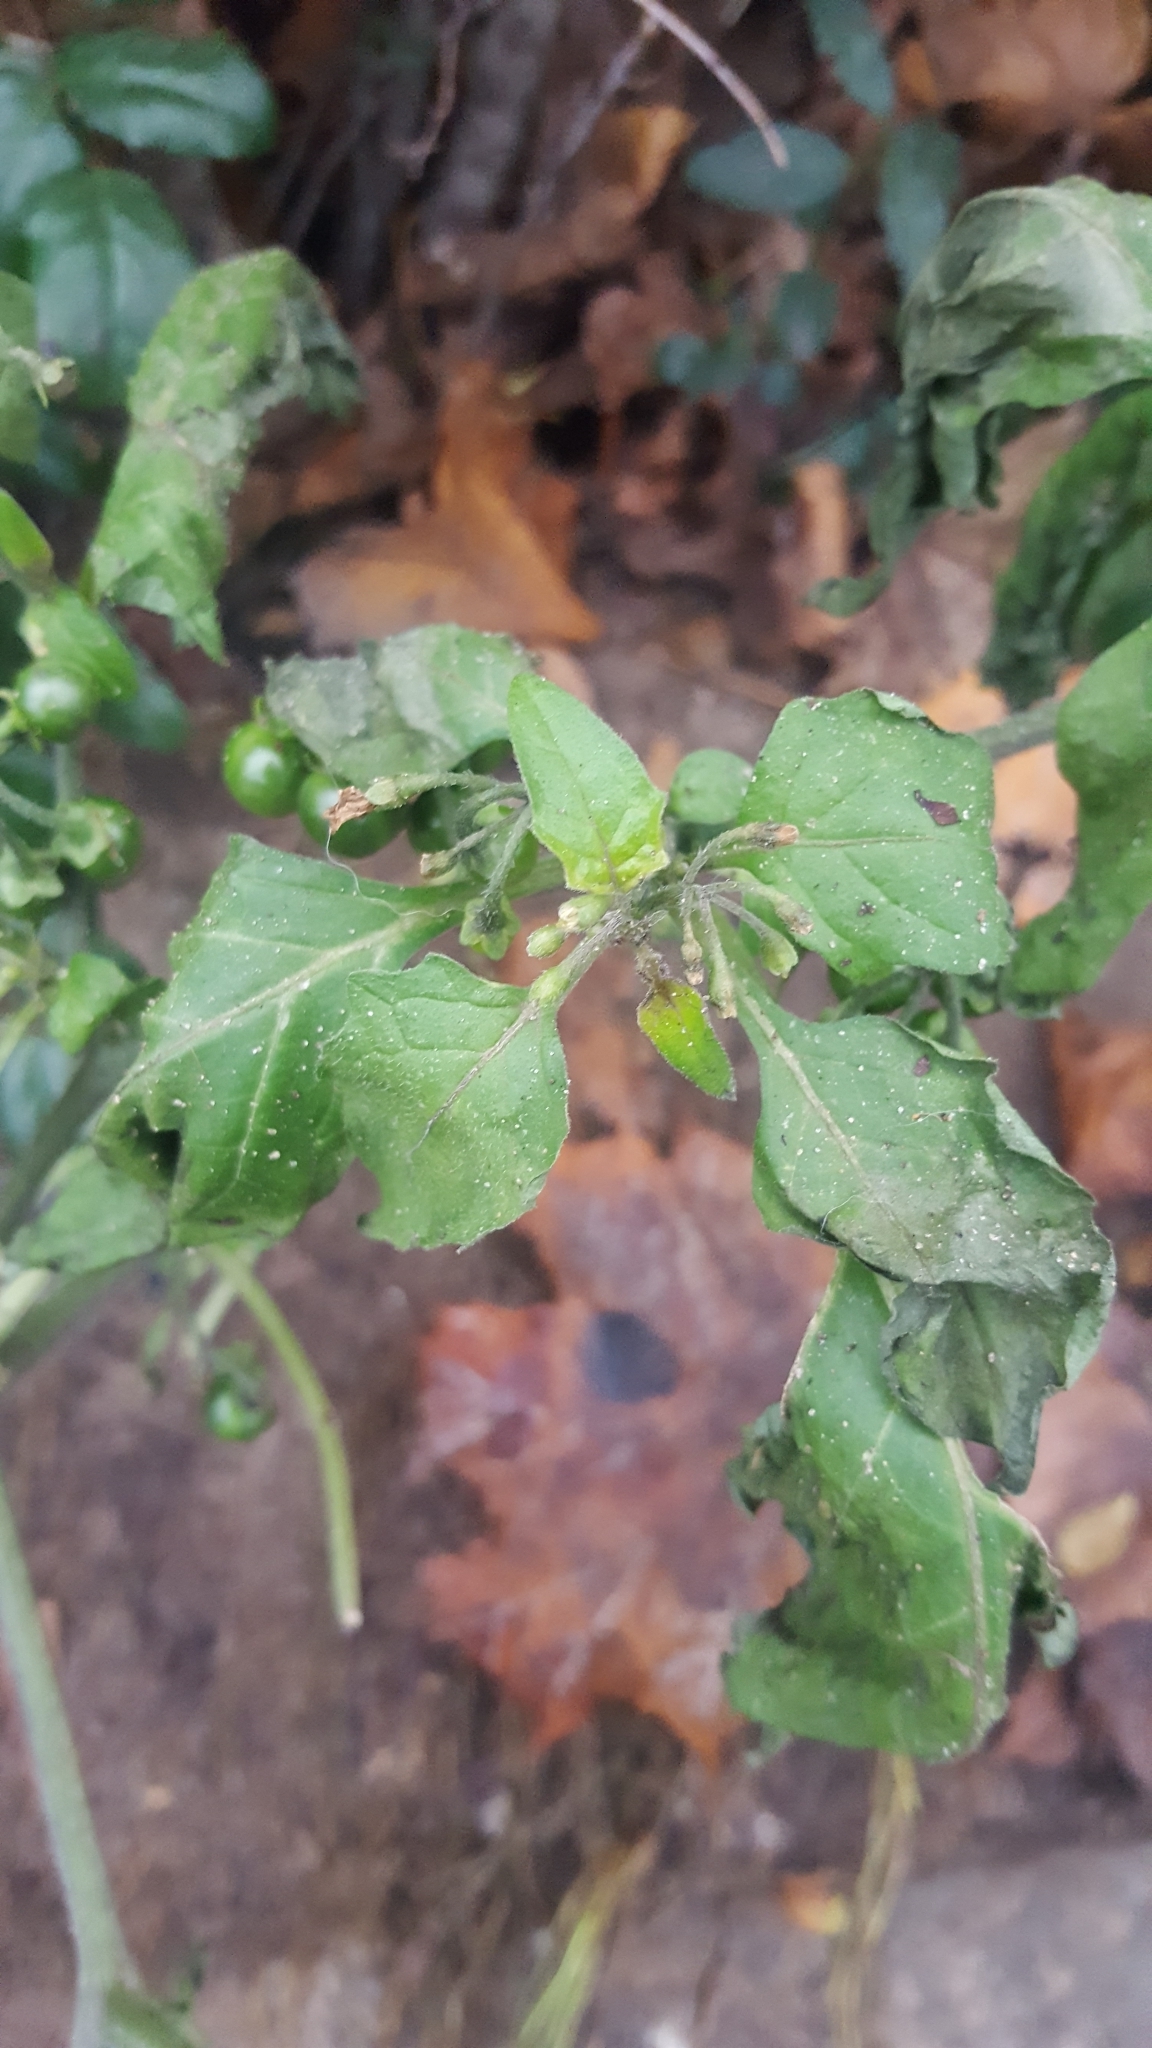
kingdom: Plantae
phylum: Tracheophyta
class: Magnoliopsida
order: Solanales
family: Solanaceae
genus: Solanum
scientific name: Solanum nigrum
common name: Black nightshade
